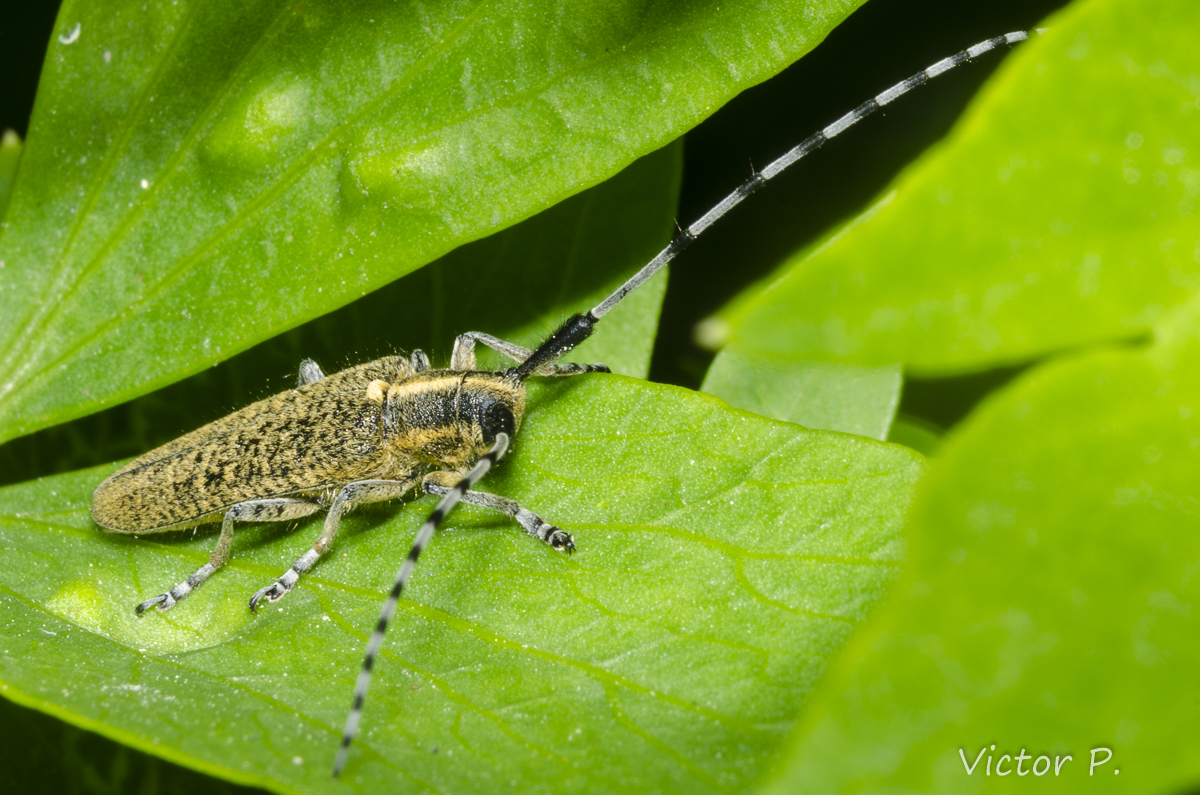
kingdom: Animalia
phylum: Arthropoda
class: Insecta
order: Coleoptera
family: Cerambycidae
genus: Agapanthia
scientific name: Agapanthia villosoviridescens
